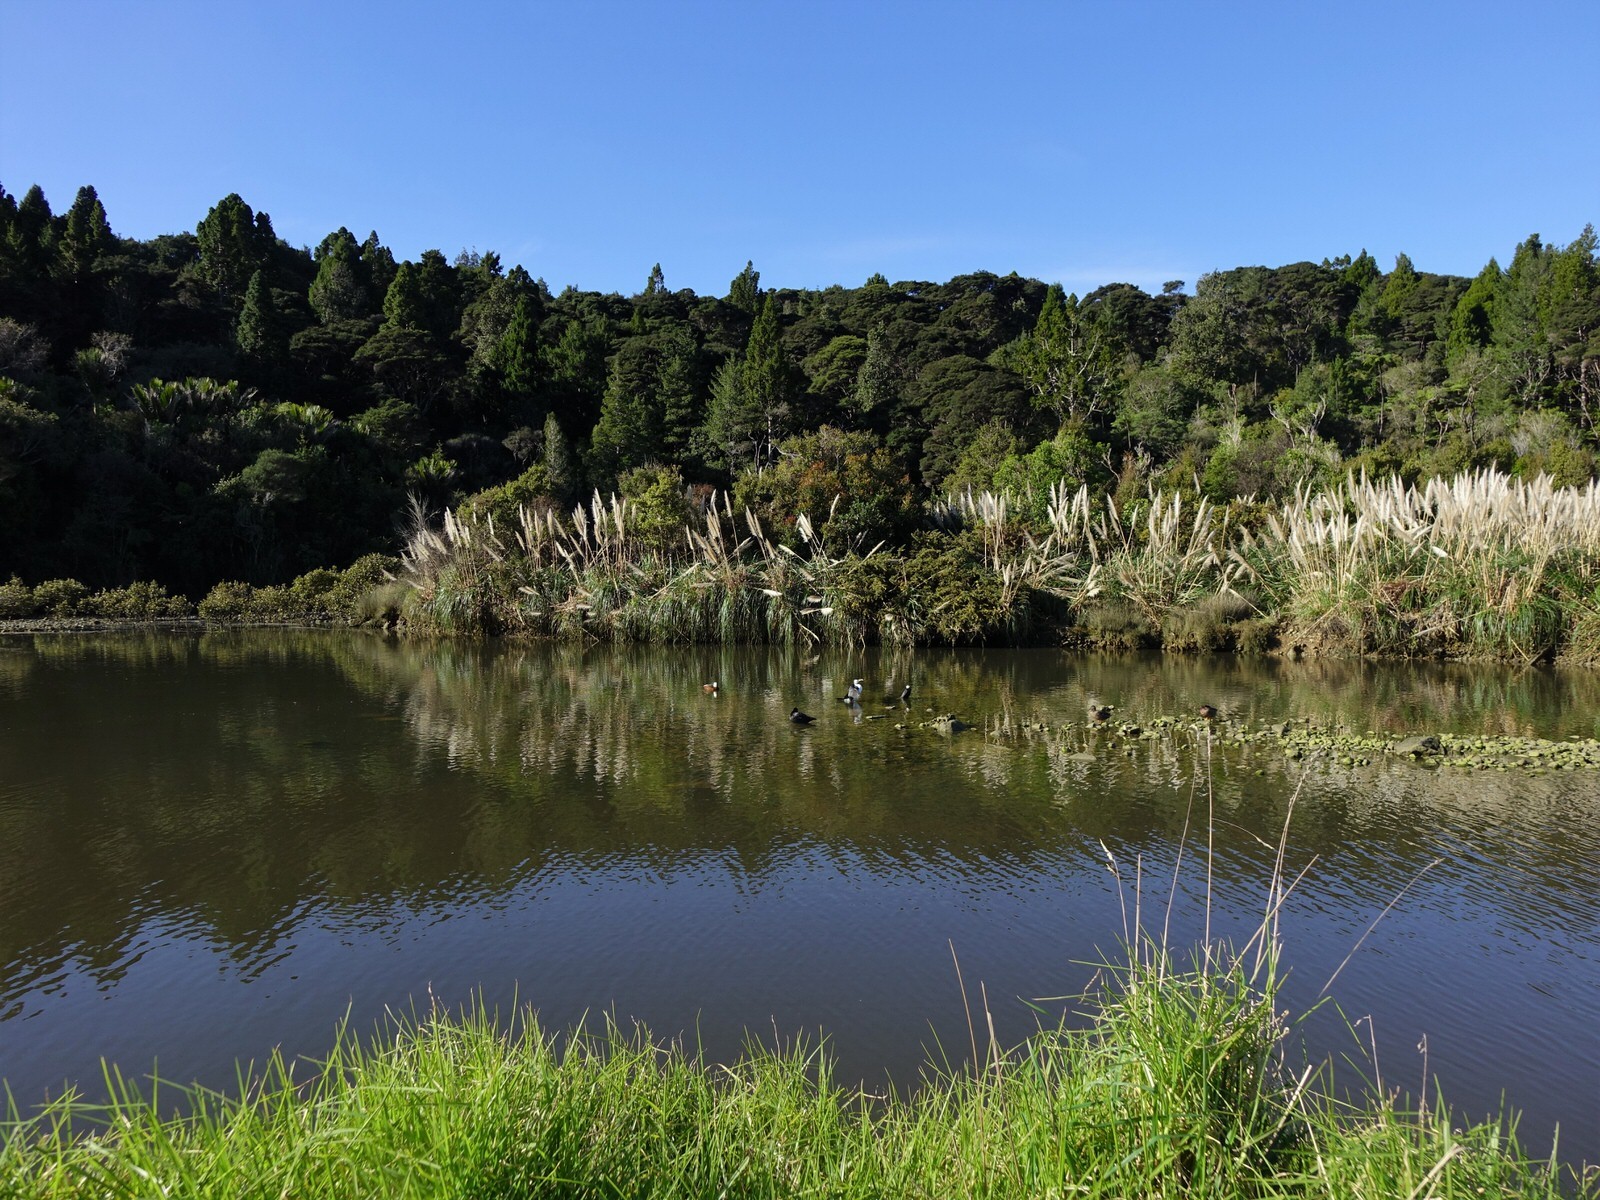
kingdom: Animalia
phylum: Chordata
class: Aves
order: Anseriformes
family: Anatidae
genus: Tadorna
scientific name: Tadorna variegata
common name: Paradise shelduck
